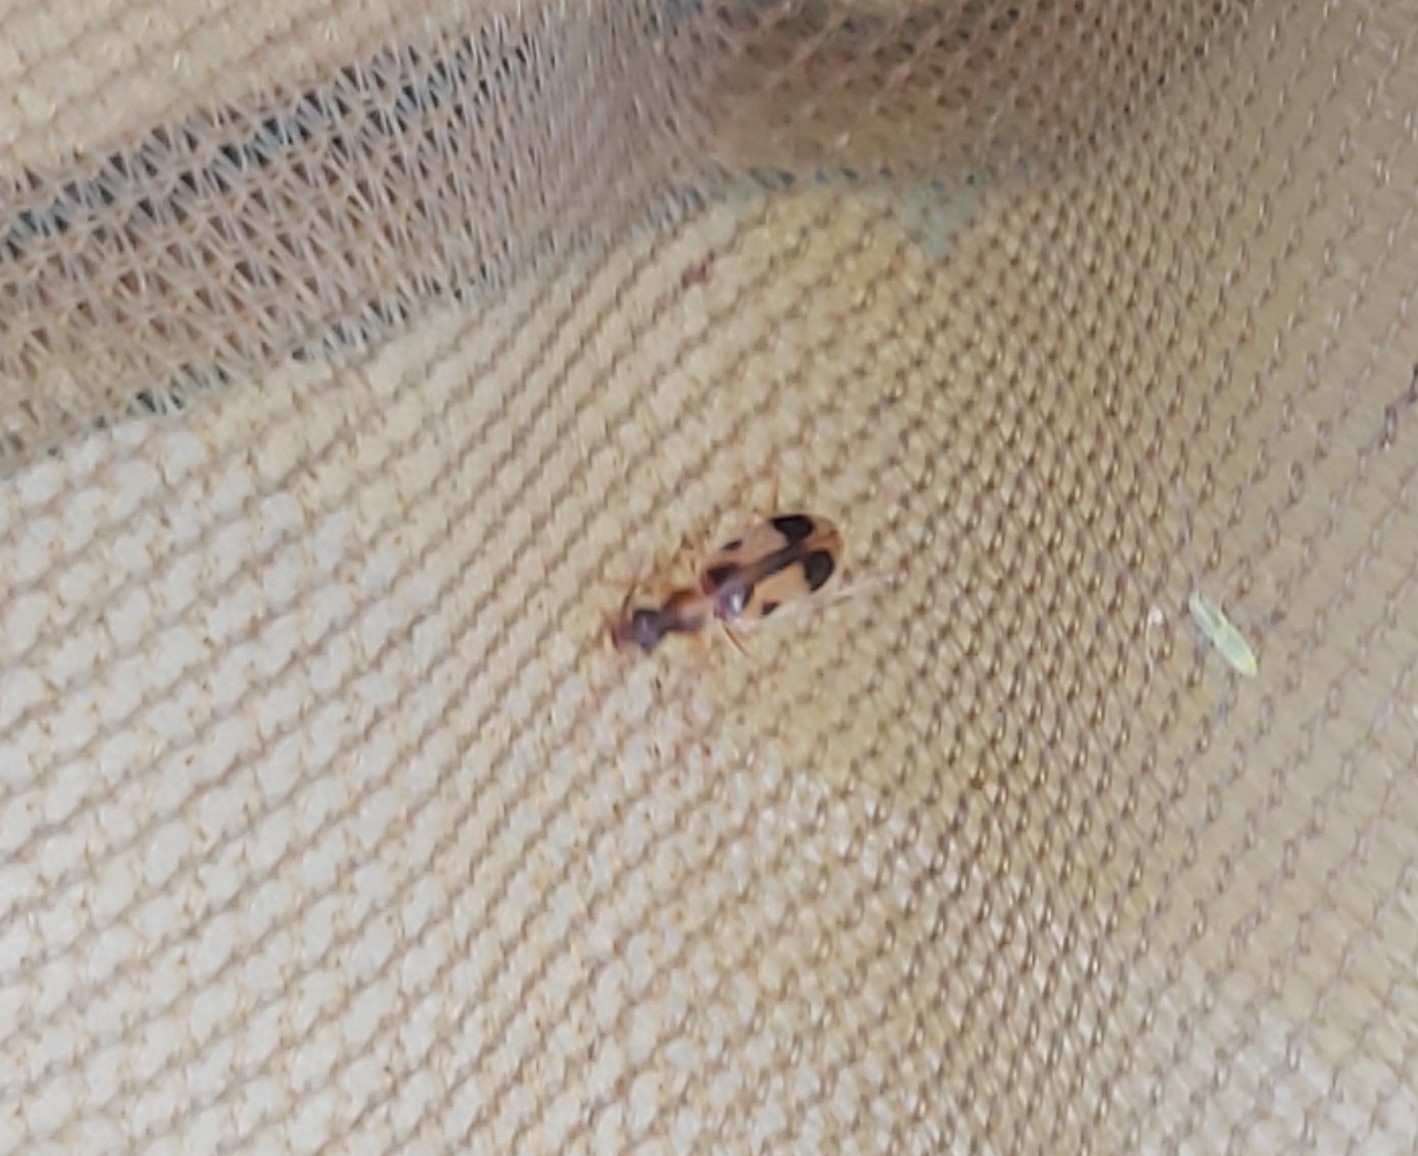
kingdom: Animalia
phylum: Arthropoda
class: Insecta
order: Coleoptera
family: Anthicidae
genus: Notoxus
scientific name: Notoxus monoceros
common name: Monoceros beetle
